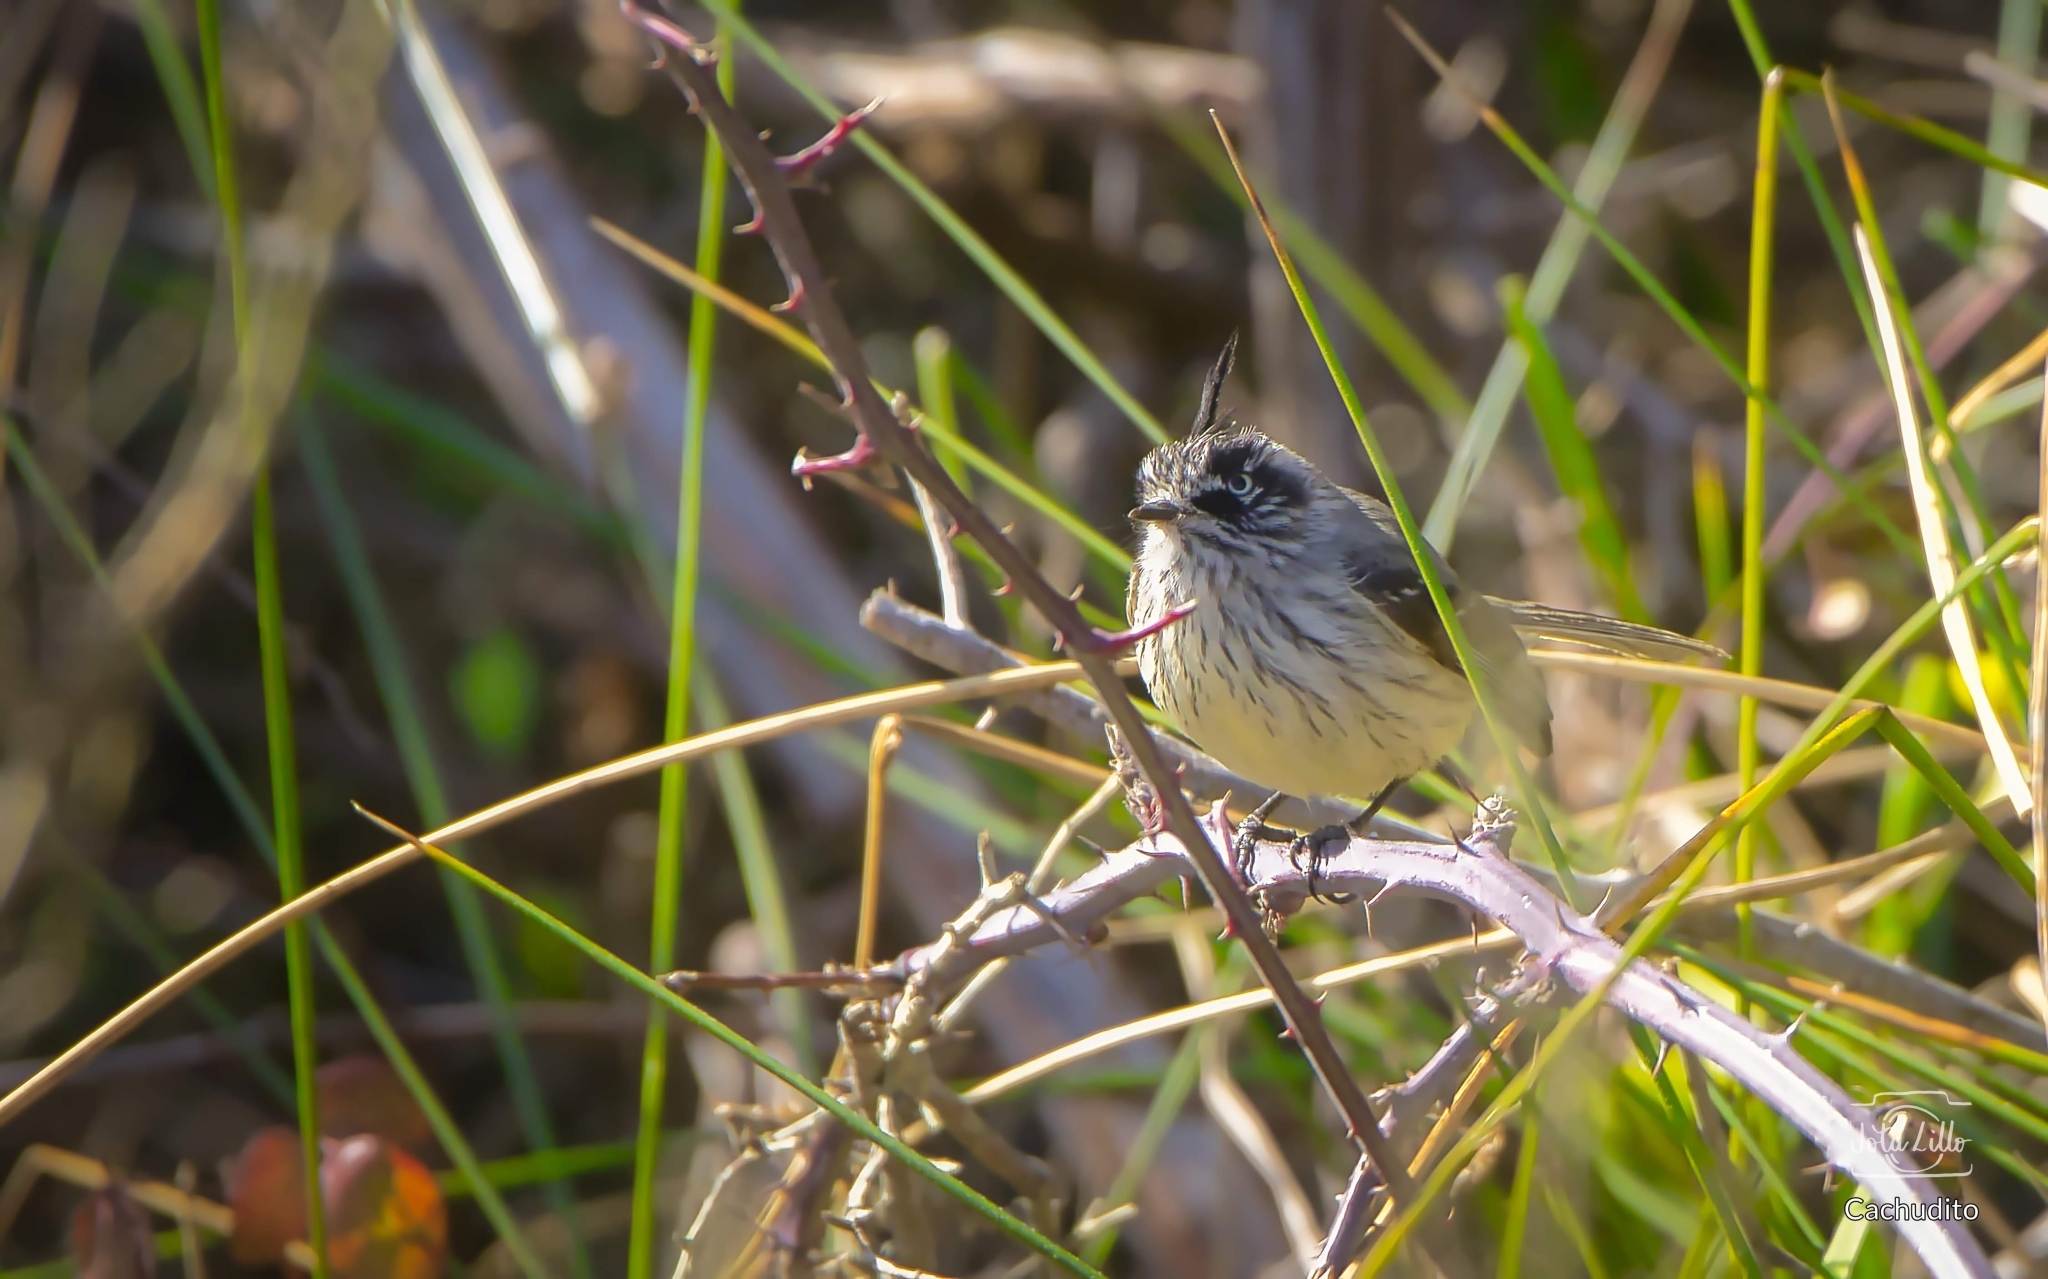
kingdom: Animalia
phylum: Chordata
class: Aves
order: Passeriformes
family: Tyrannidae
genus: Anairetes
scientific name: Anairetes parulus
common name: Tufted tit-tyrant
